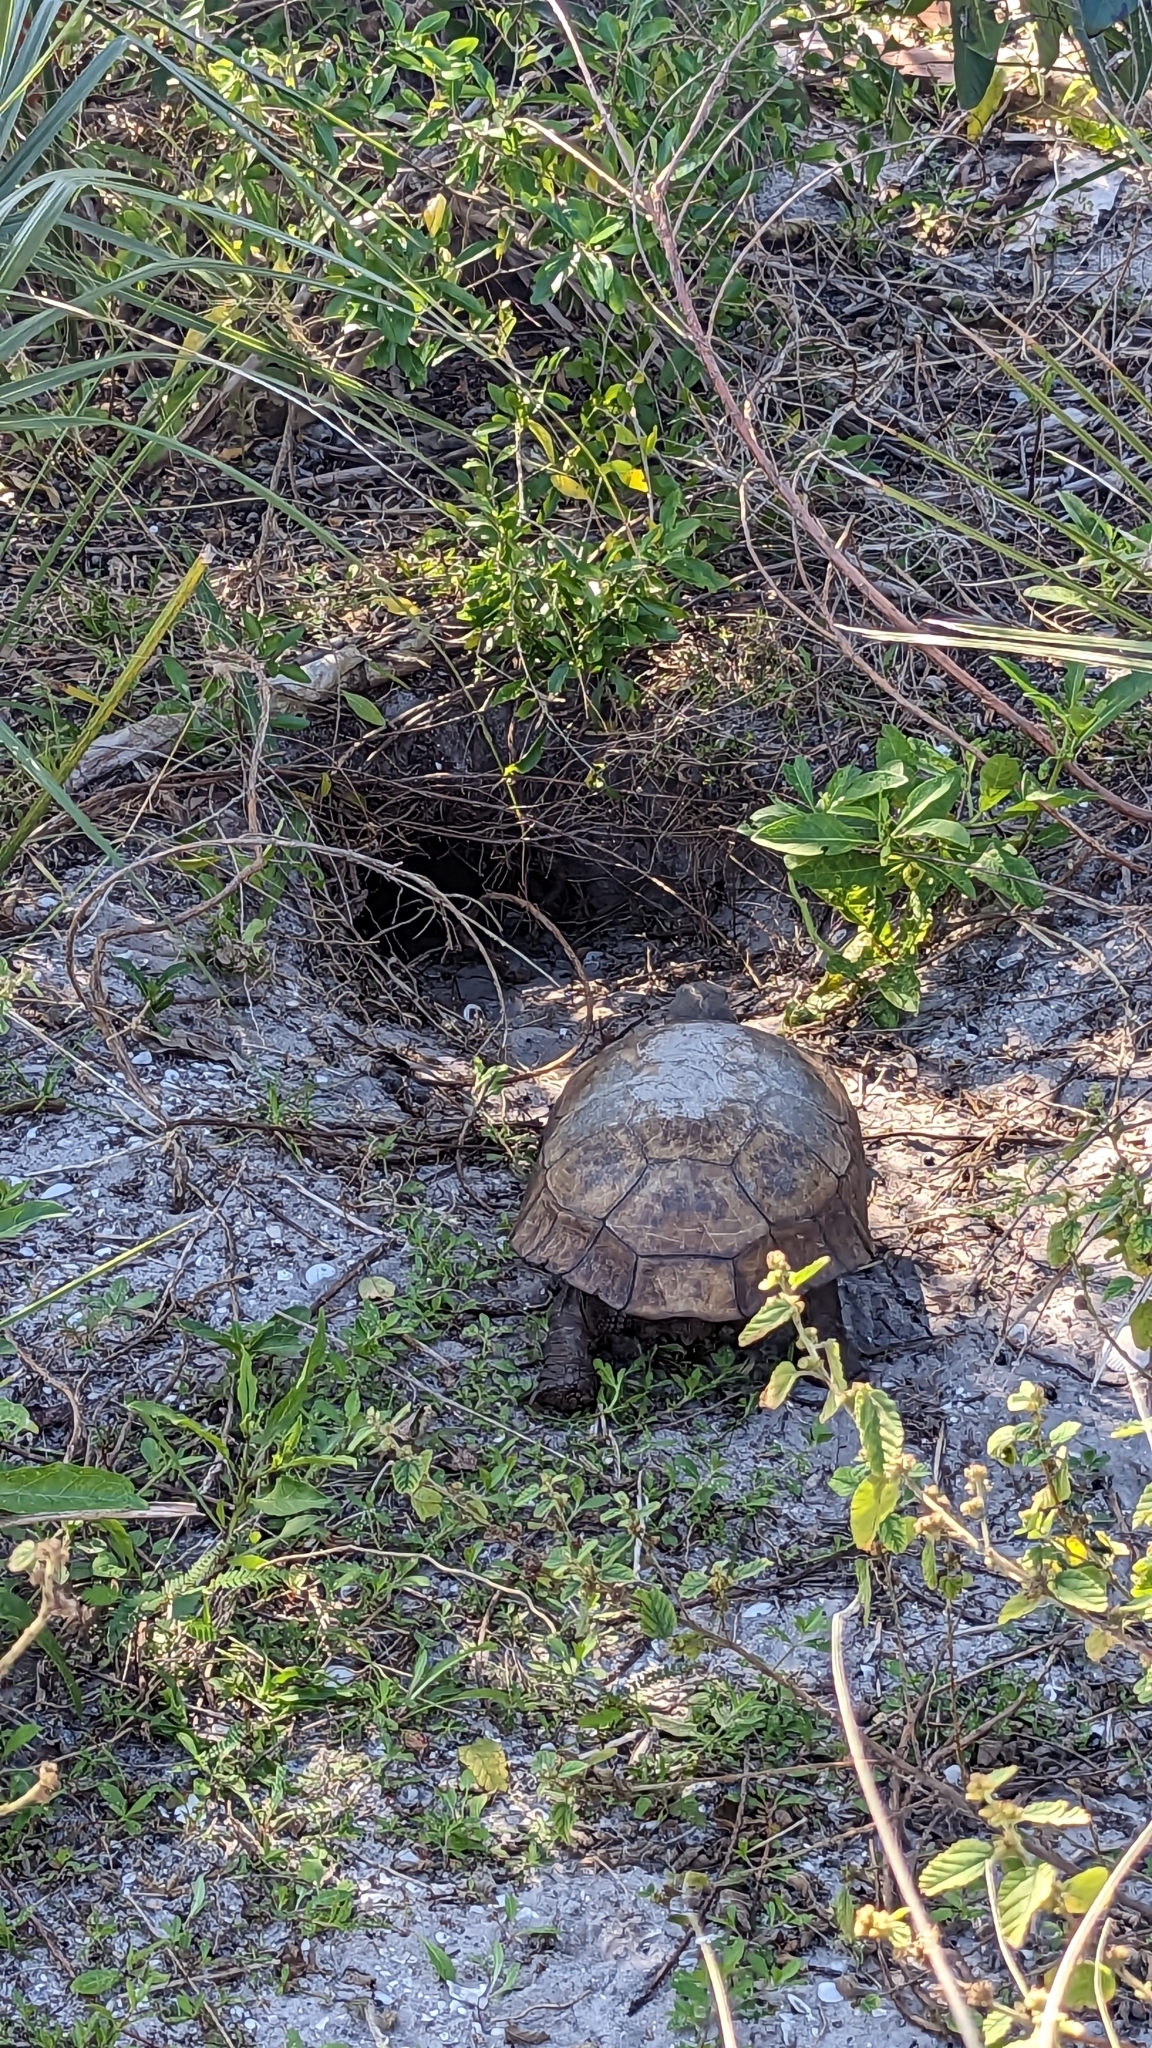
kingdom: Animalia
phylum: Chordata
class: Testudines
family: Testudinidae
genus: Gopherus
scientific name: Gopherus polyphemus
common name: Florida gopher tortoise
